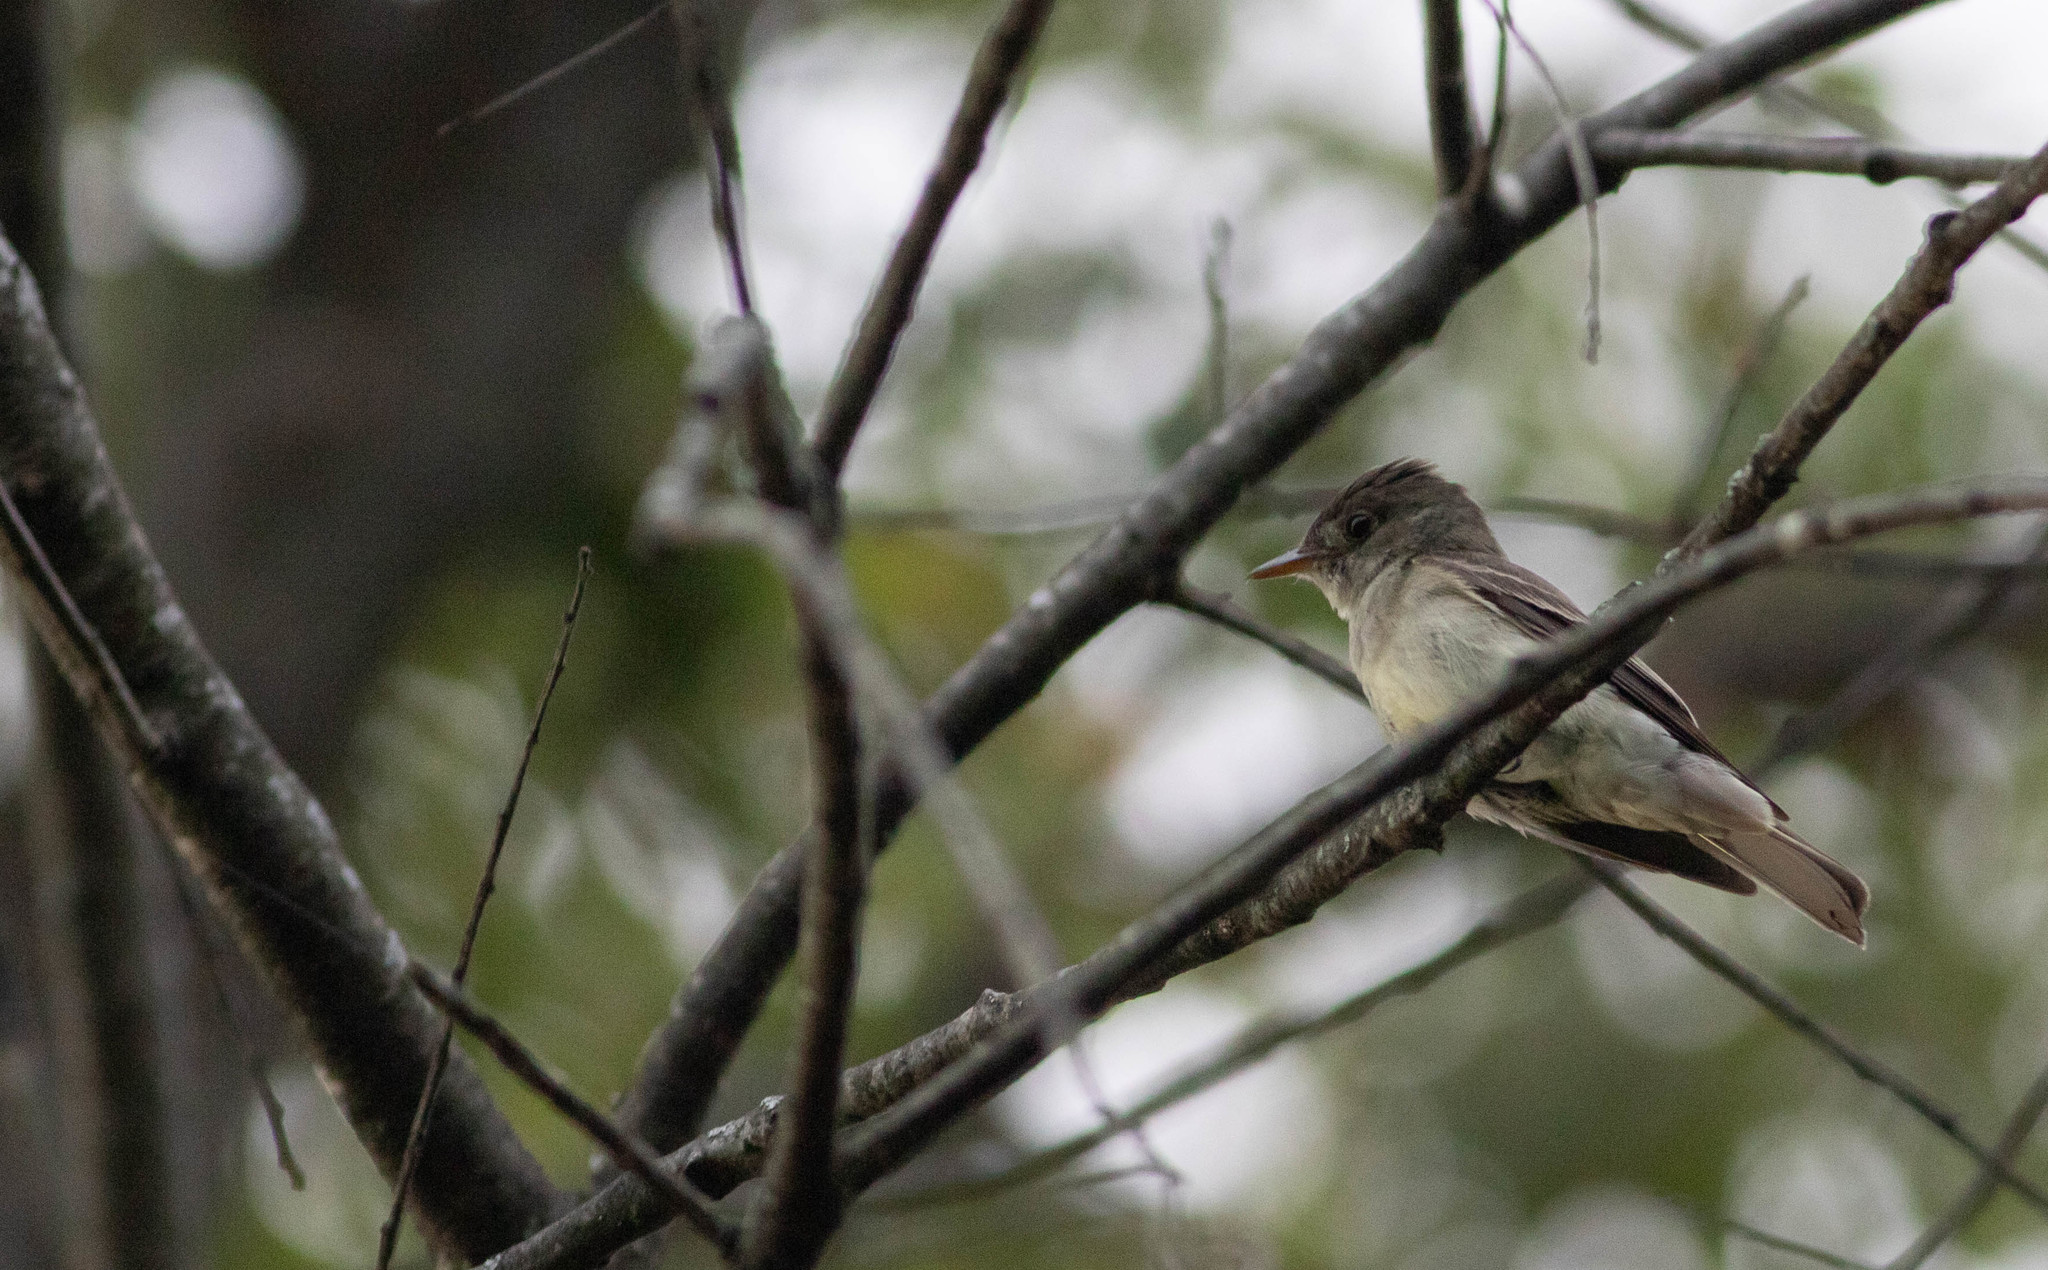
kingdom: Animalia
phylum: Chordata
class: Aves
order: Passeriformes
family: Tyrannidae
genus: Contopus
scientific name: Contopus virens
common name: Eastern wood-pewee
